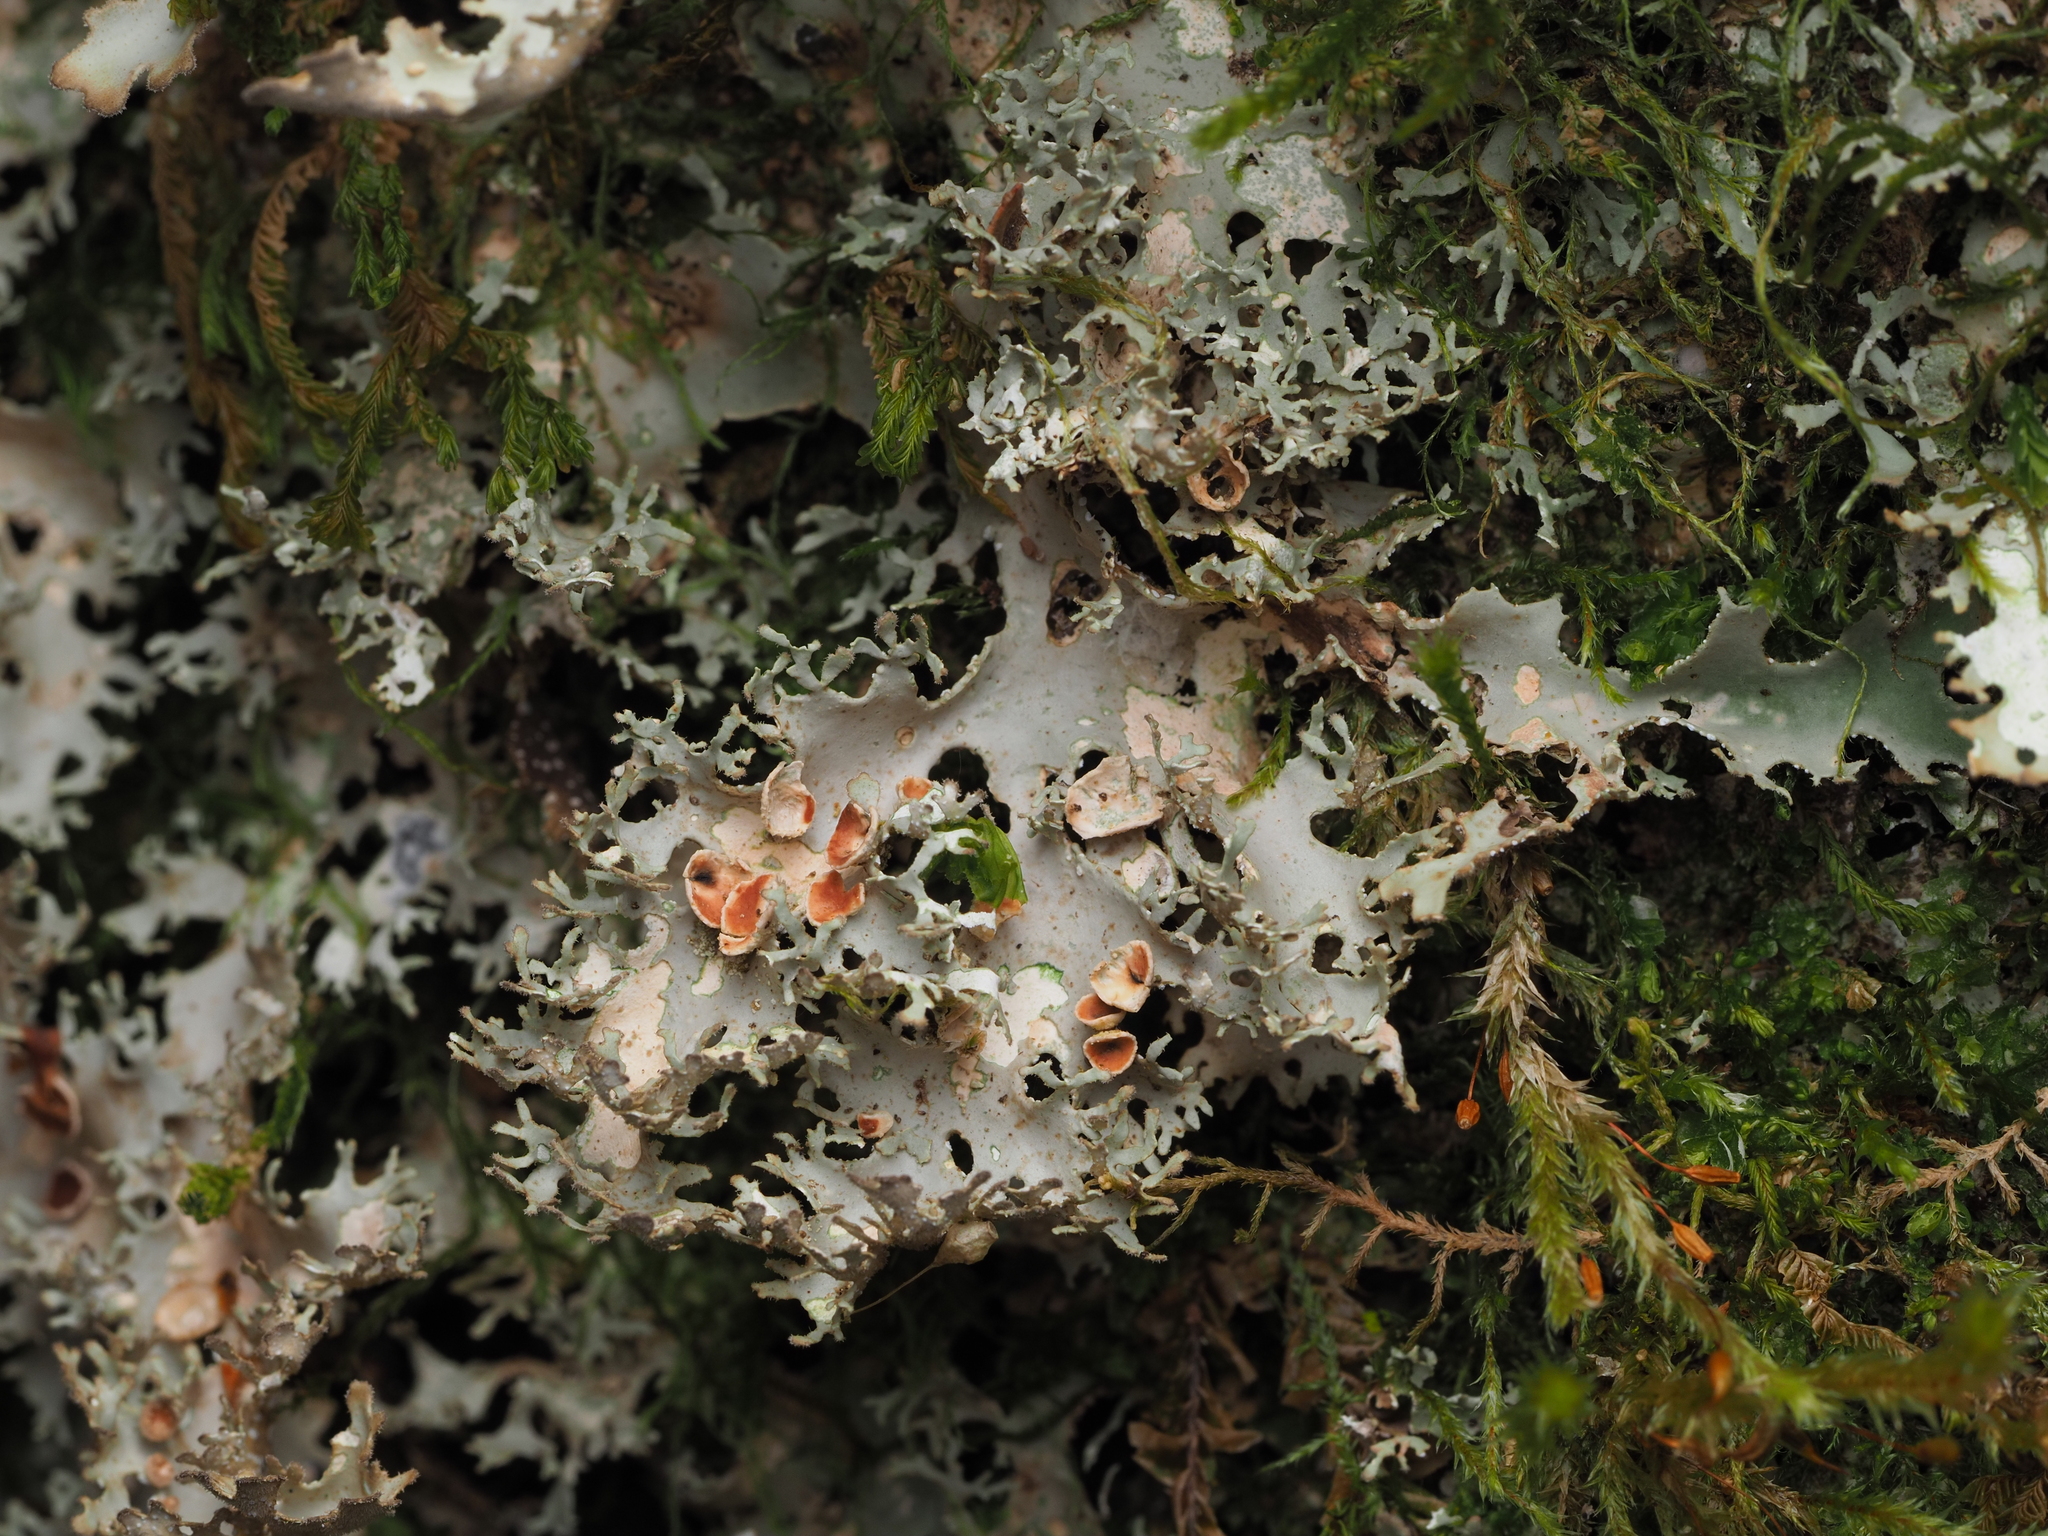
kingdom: Fungi
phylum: Ascomycota
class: Lecanoromycetes
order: Peltigerales
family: Lobariaceae
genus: Sticta
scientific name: Sticta martinii
